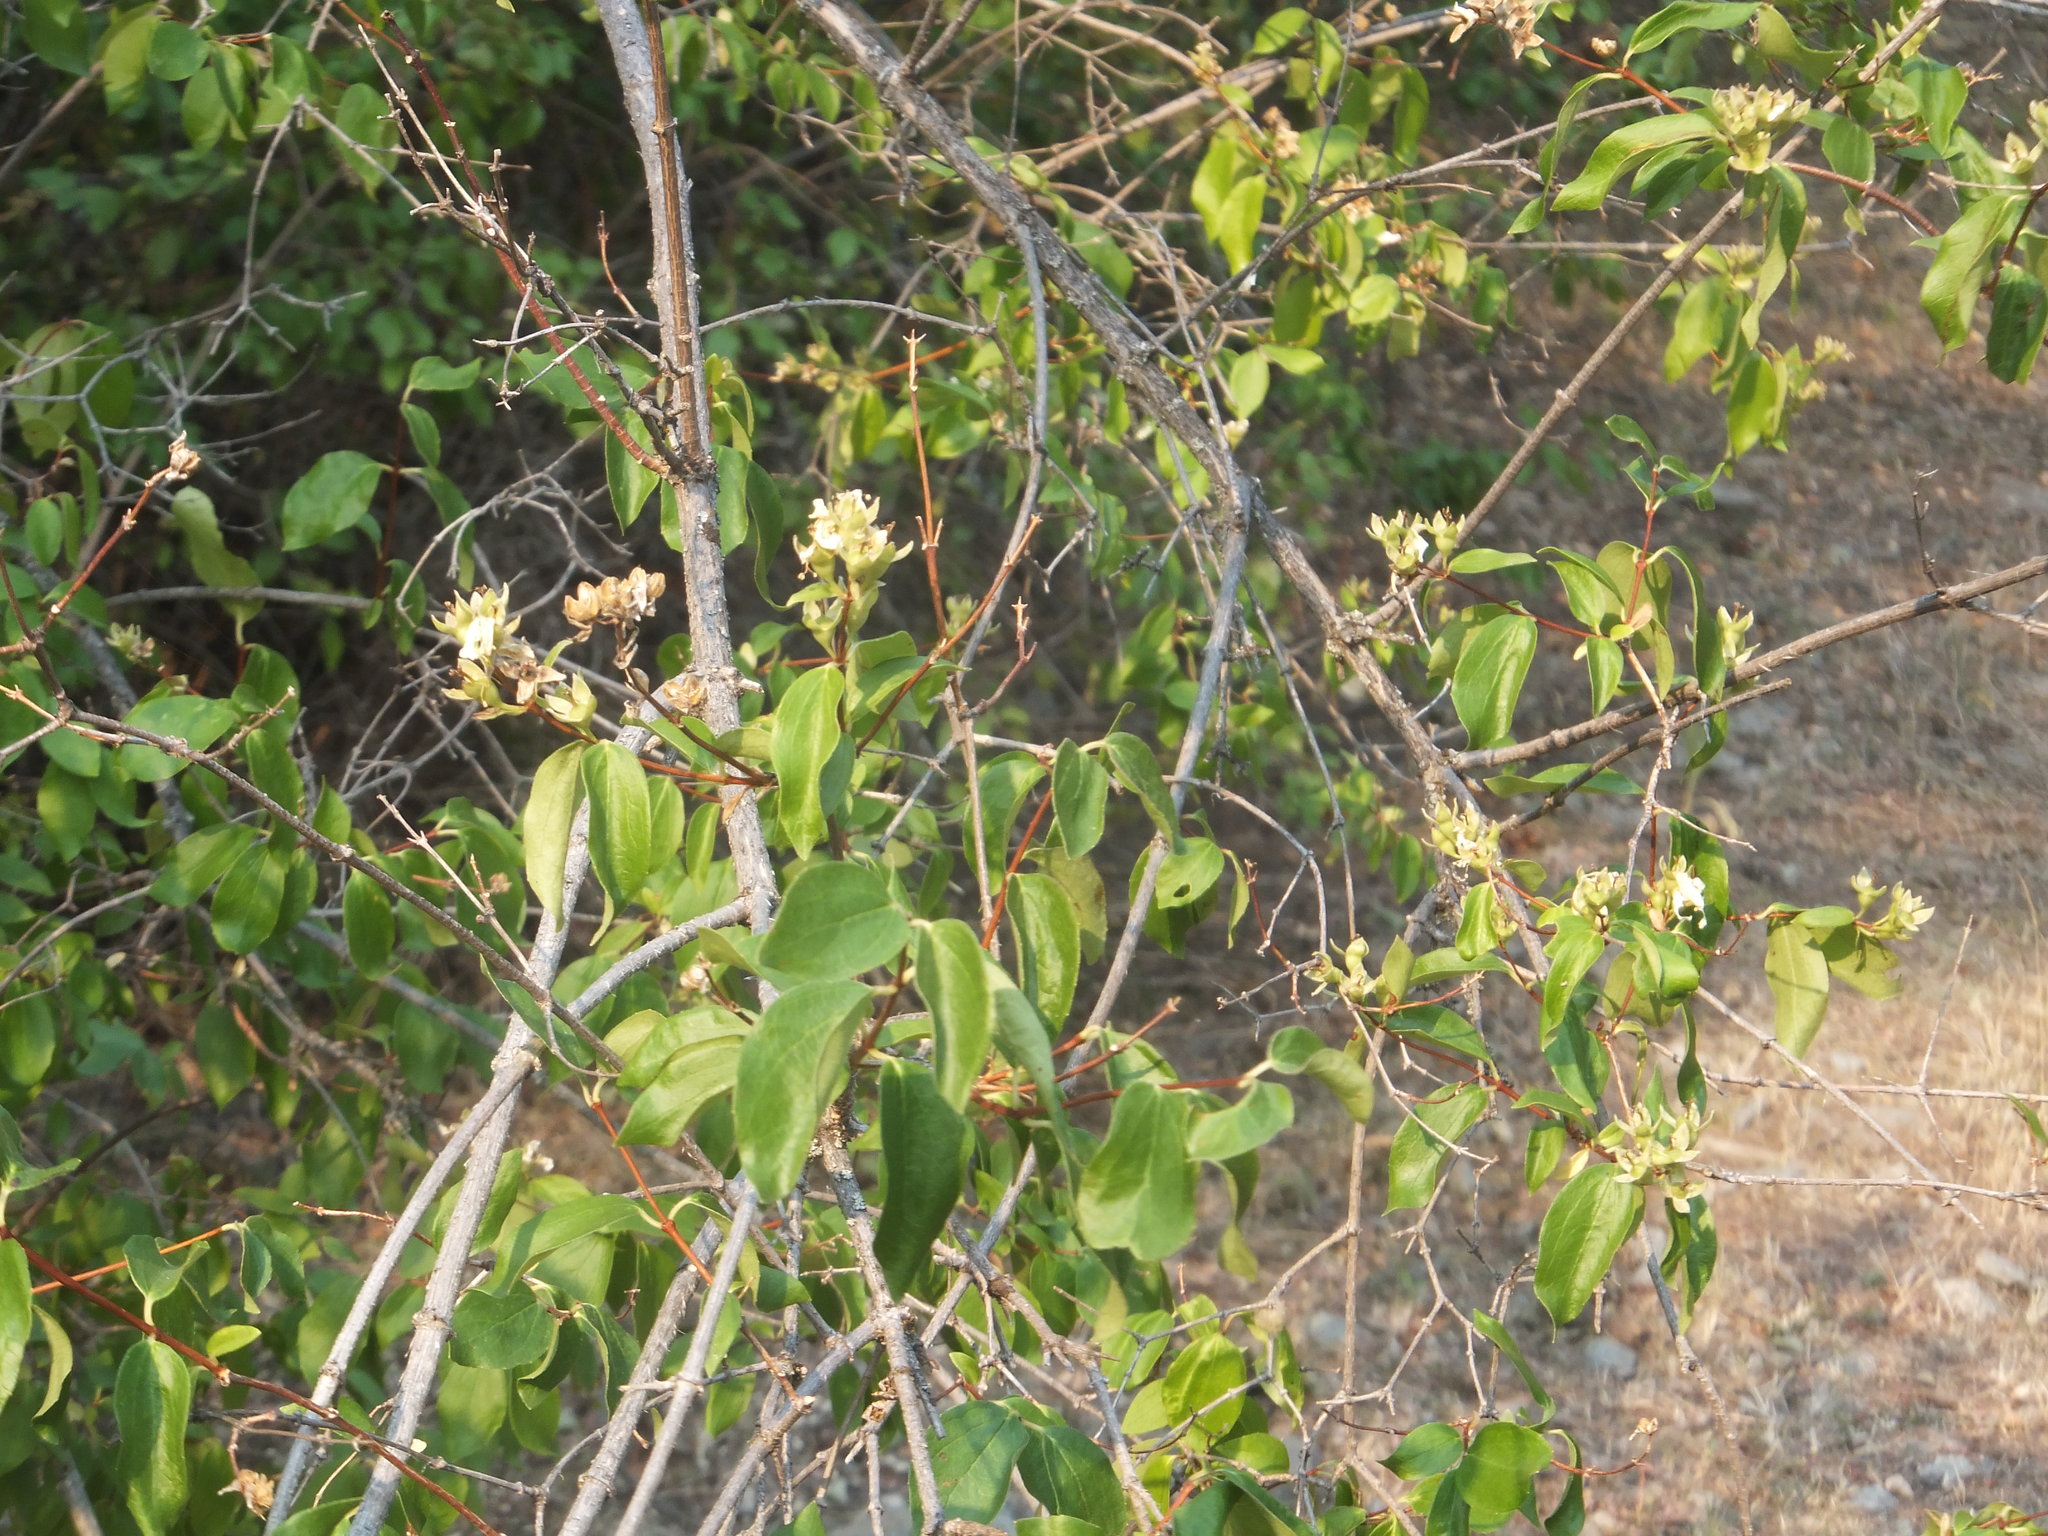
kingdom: Plantae
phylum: Tracheophyta
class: Magnoliopsida
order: Cornales
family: Hydrangeaceae
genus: Philadelphus
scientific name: Philadelphus lewisii
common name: Lewis's mock orange
